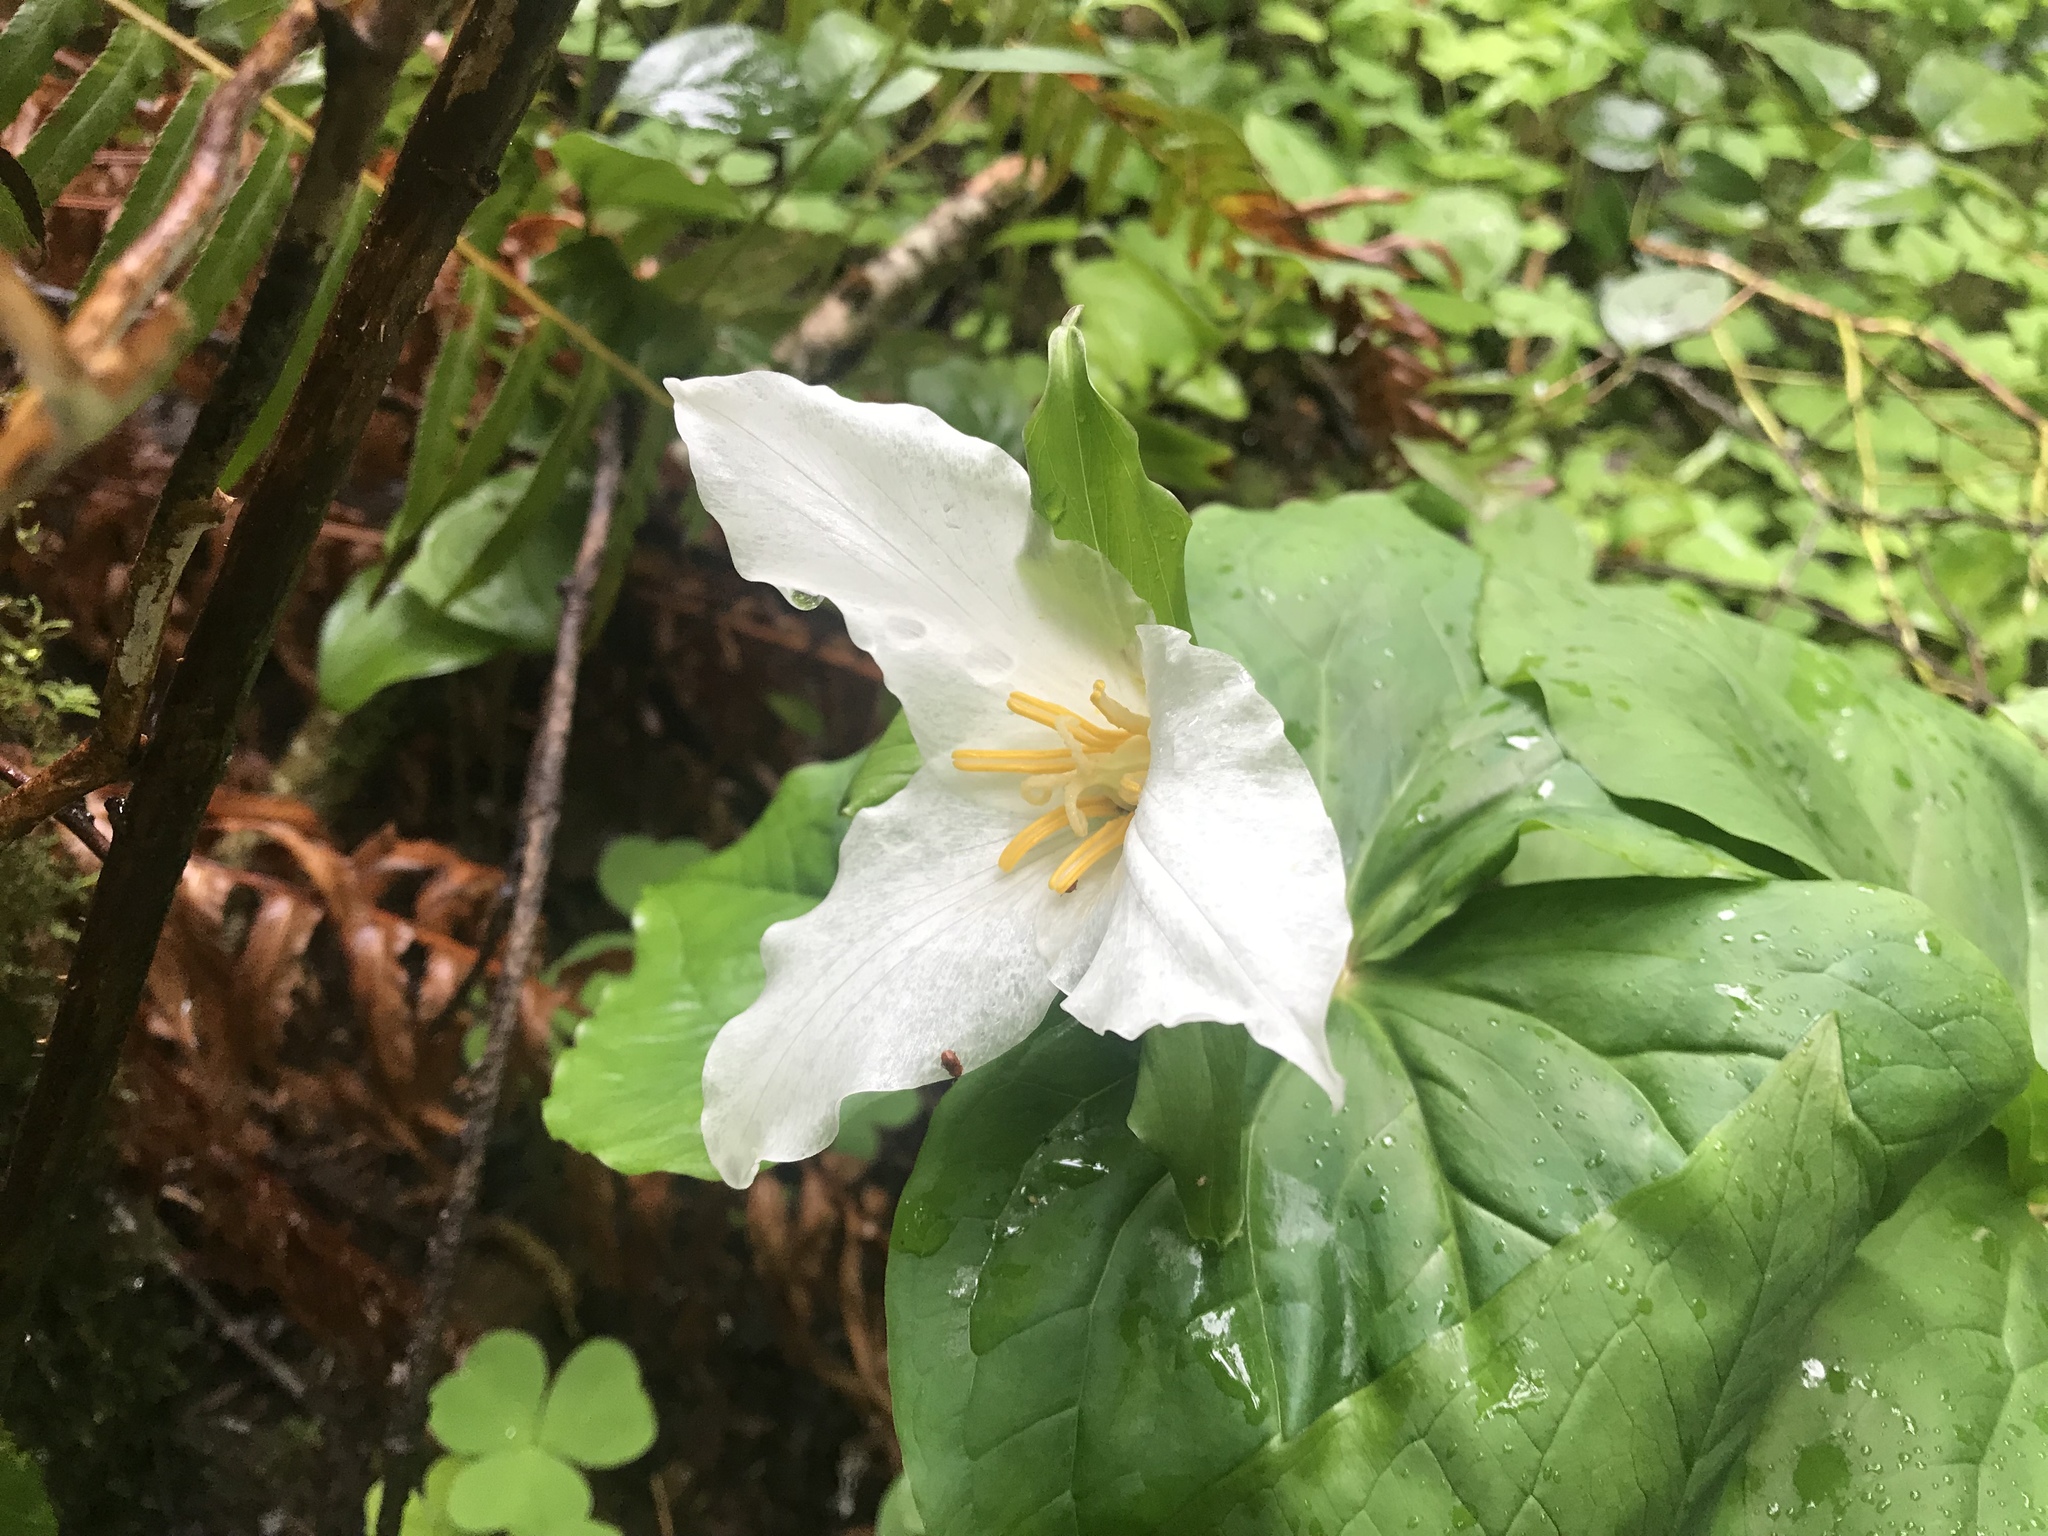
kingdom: Plantae
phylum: Tracheophyta
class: Liliopsida
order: Liliales
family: Melanthiaceae
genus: Trillium
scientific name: Trillium ovatum
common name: Pacific trillium
